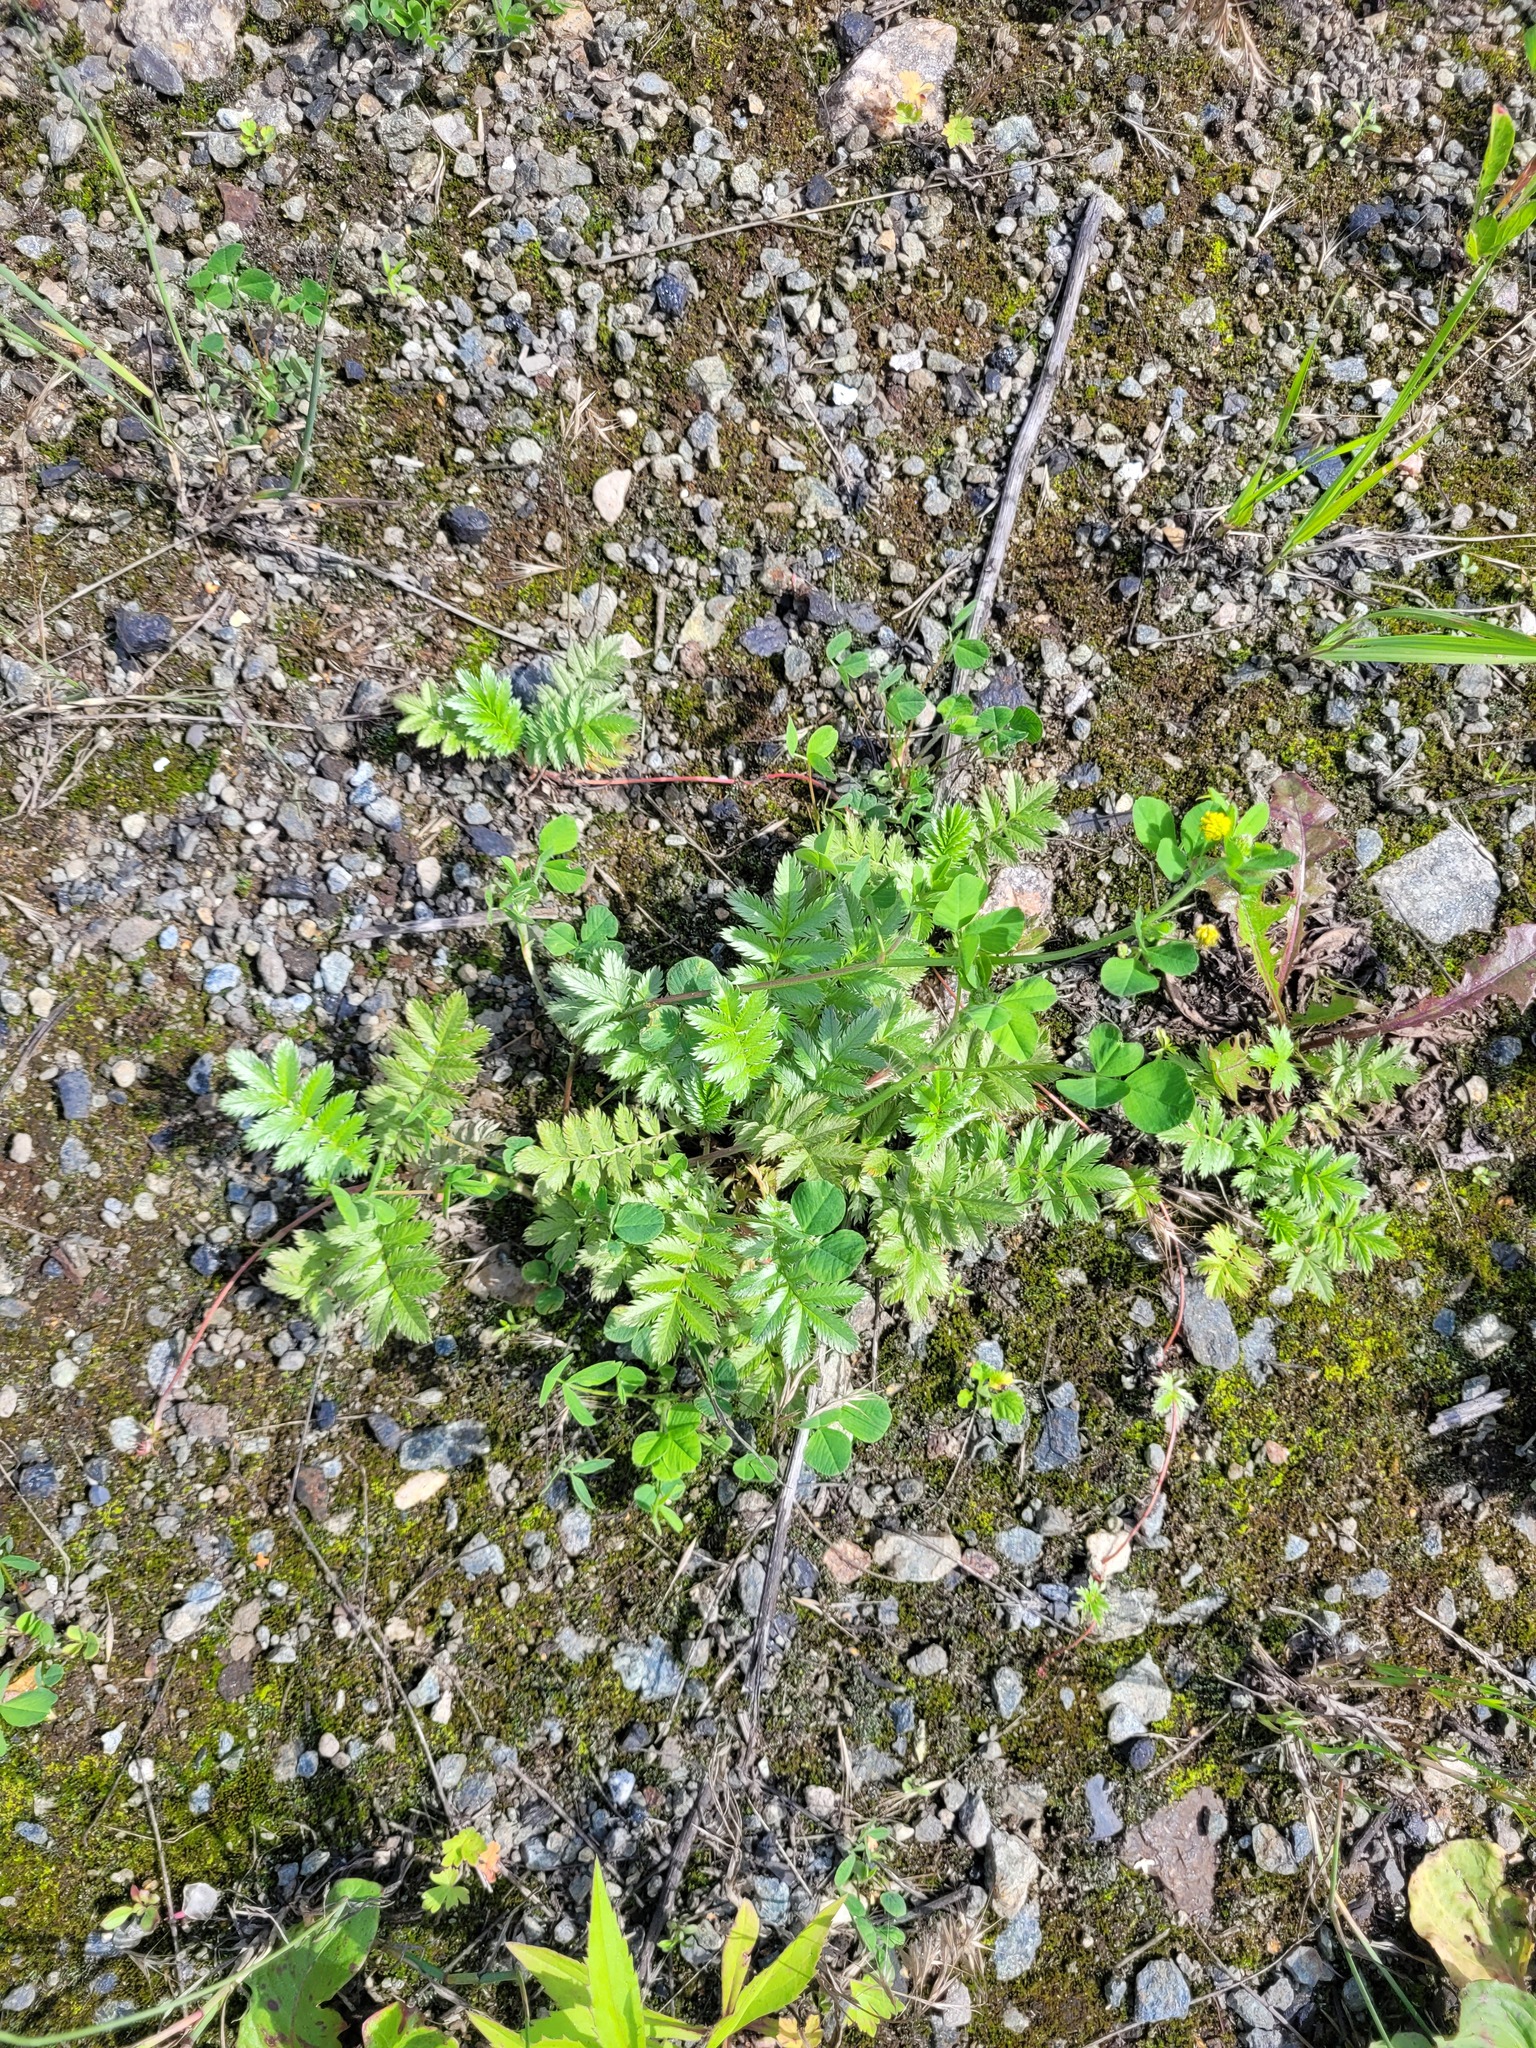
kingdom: Plantae
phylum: Tracheophyta
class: Magnoliopsida
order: Rosales
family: Rosaceae
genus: Argentina
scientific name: Argentina anserina
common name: Common silverweed
